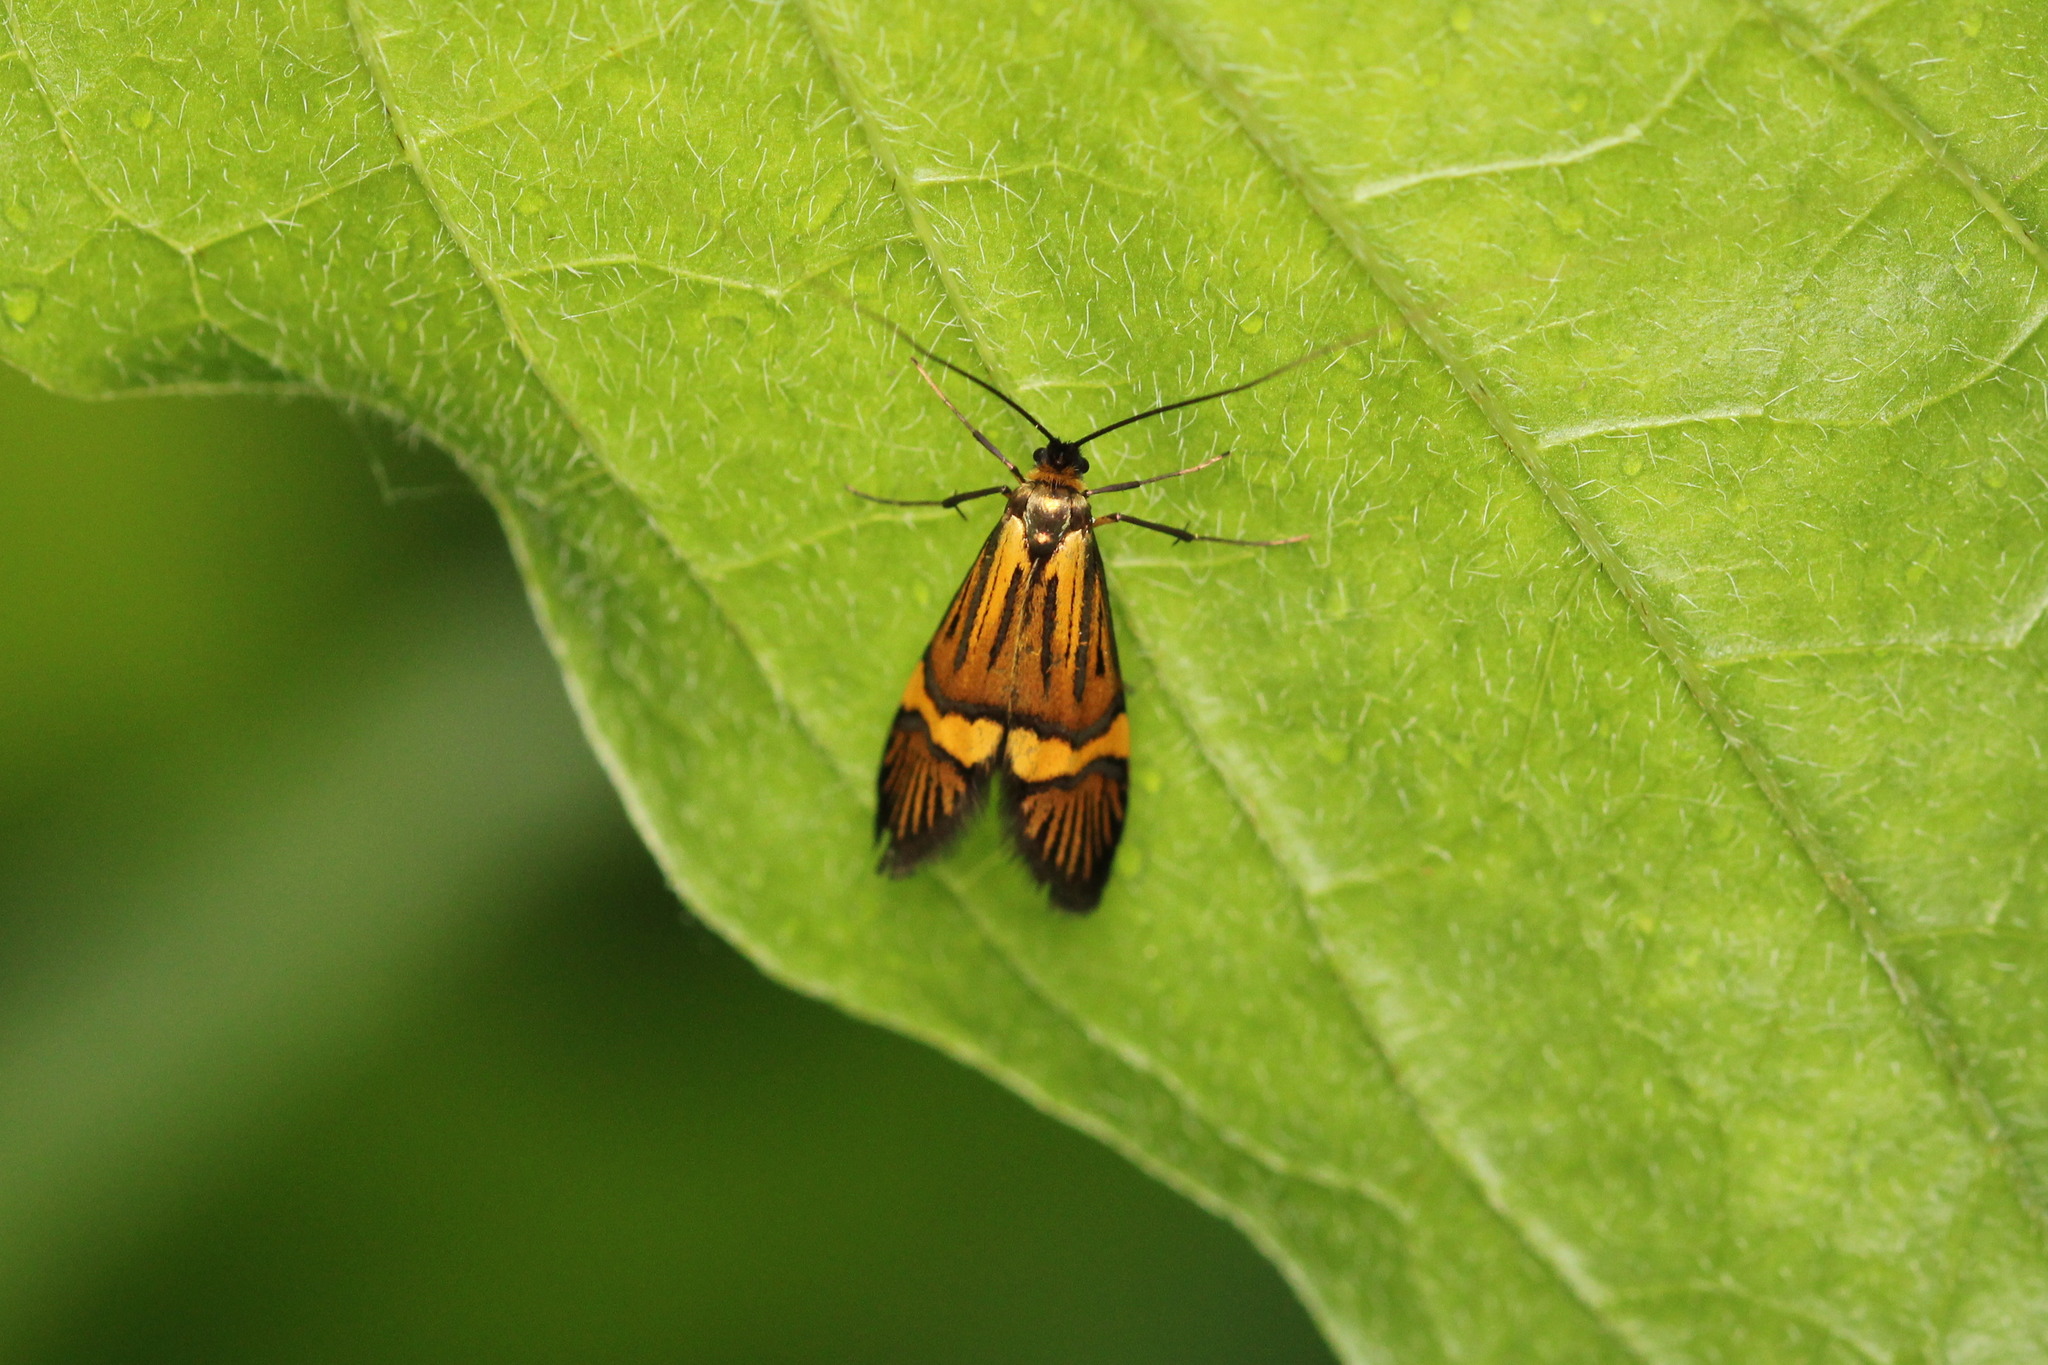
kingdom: Animalia
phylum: Arthropoda
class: Insecta
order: Lepidoptera
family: Adelidae
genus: Nemophora
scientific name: Nemophora
